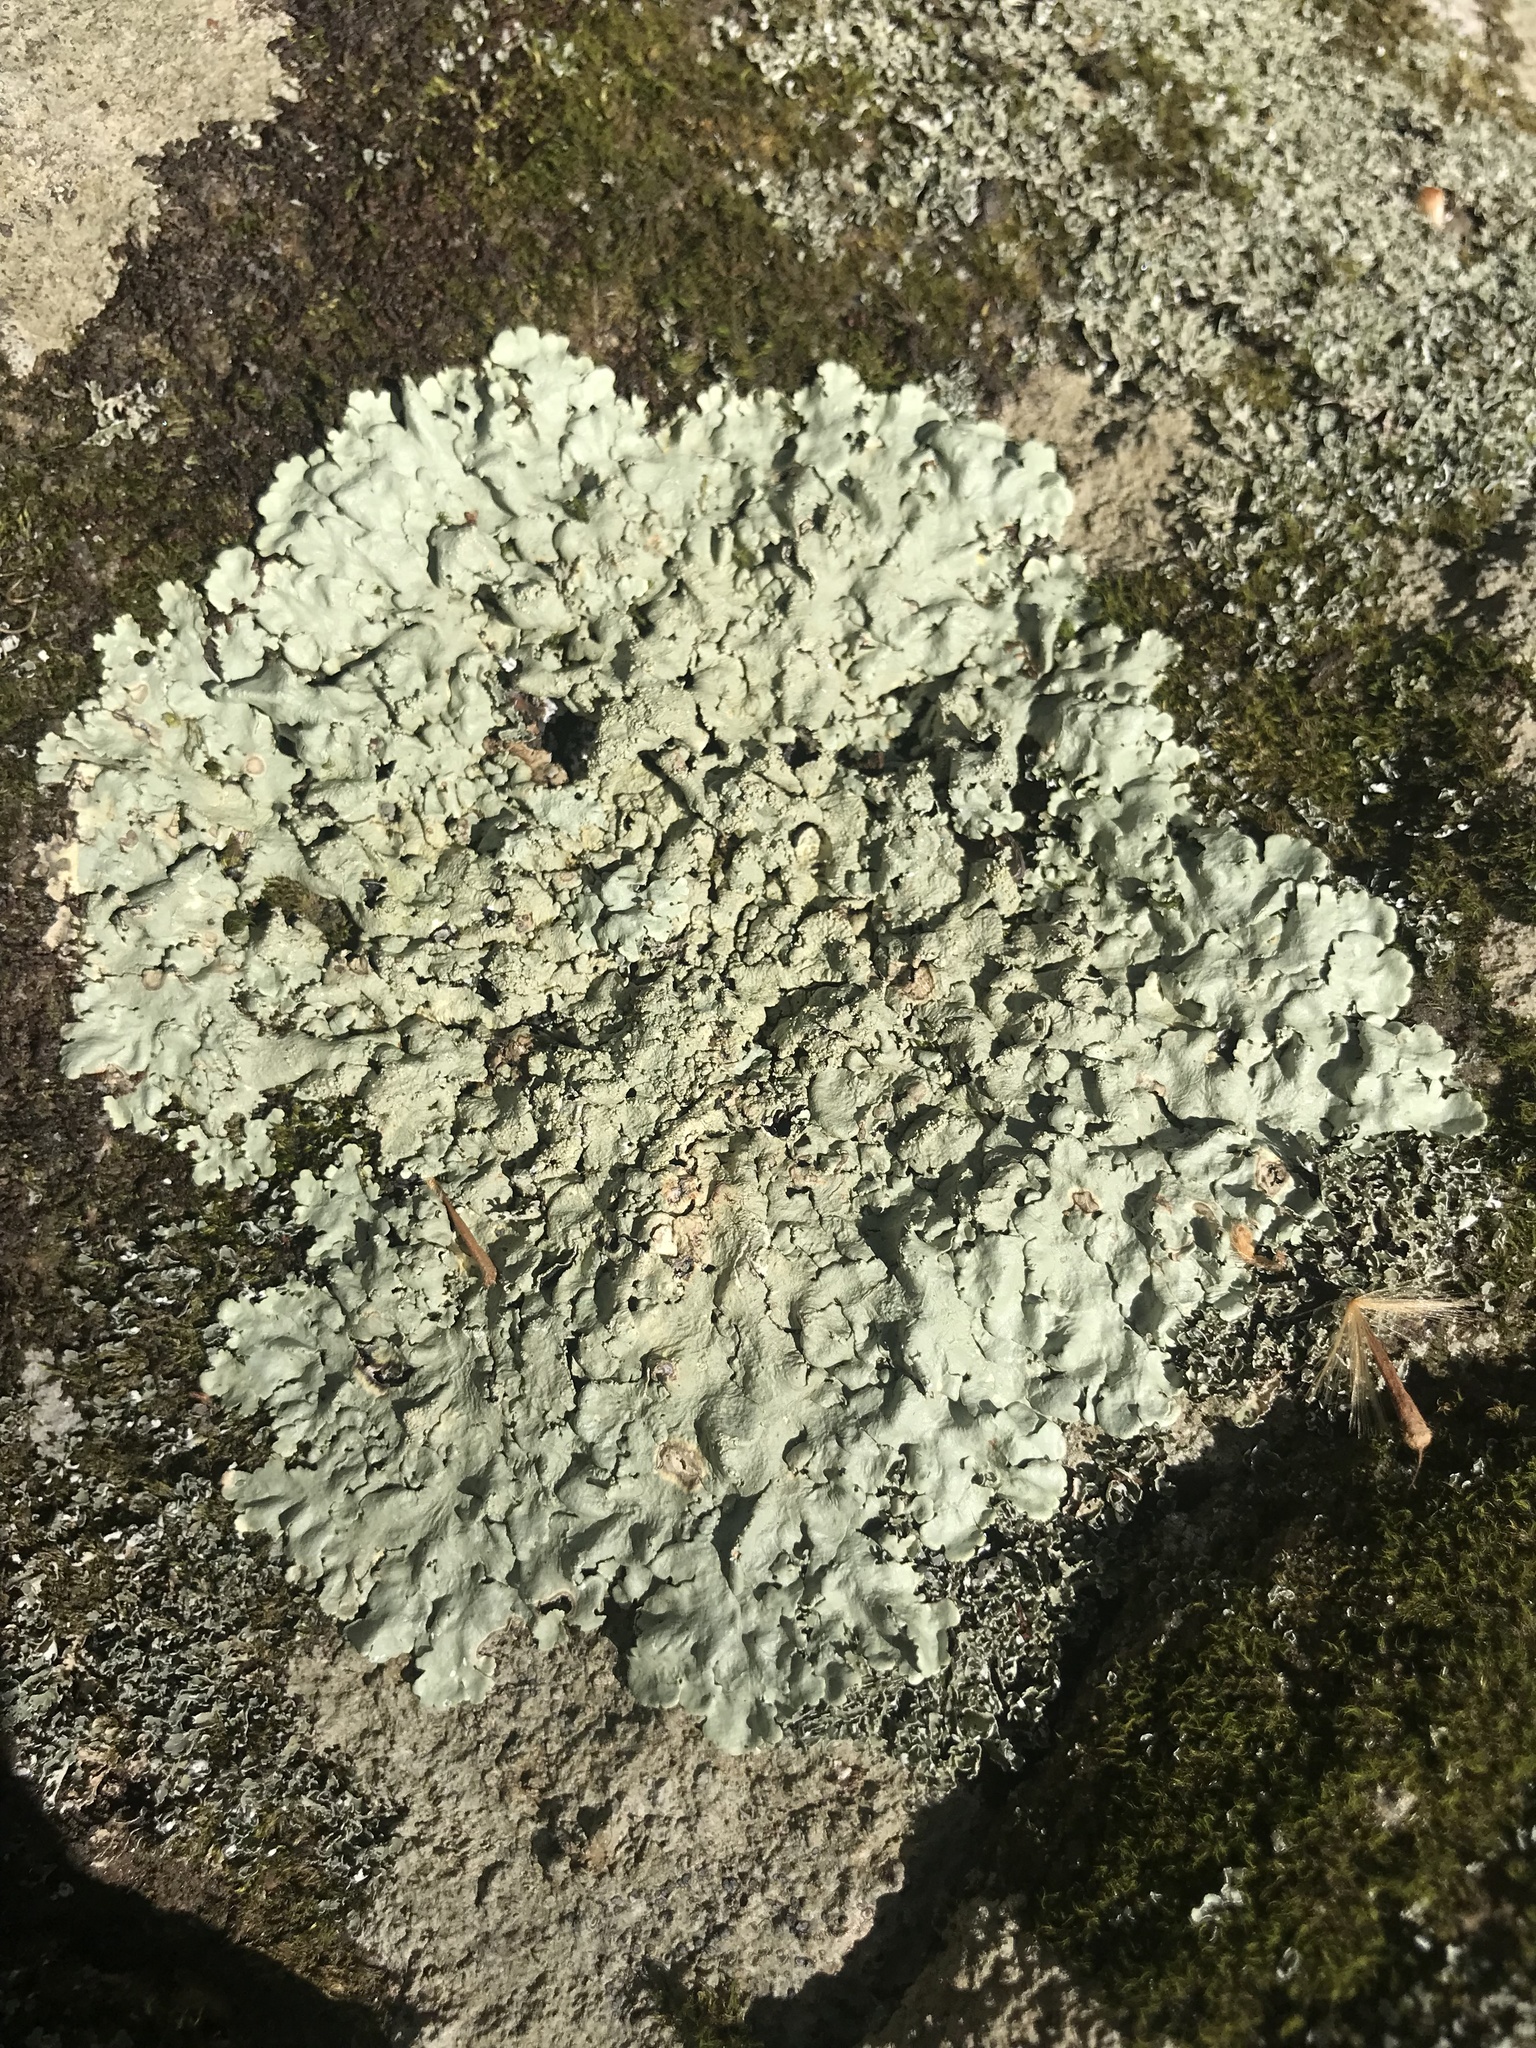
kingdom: Fungi
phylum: Ascomycota
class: Lecanoromycetes
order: Lecanorales
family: Parmeliaceae
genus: Flavoparmelia
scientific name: Flavoparmelia baltimorensis
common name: Rock greenshield
